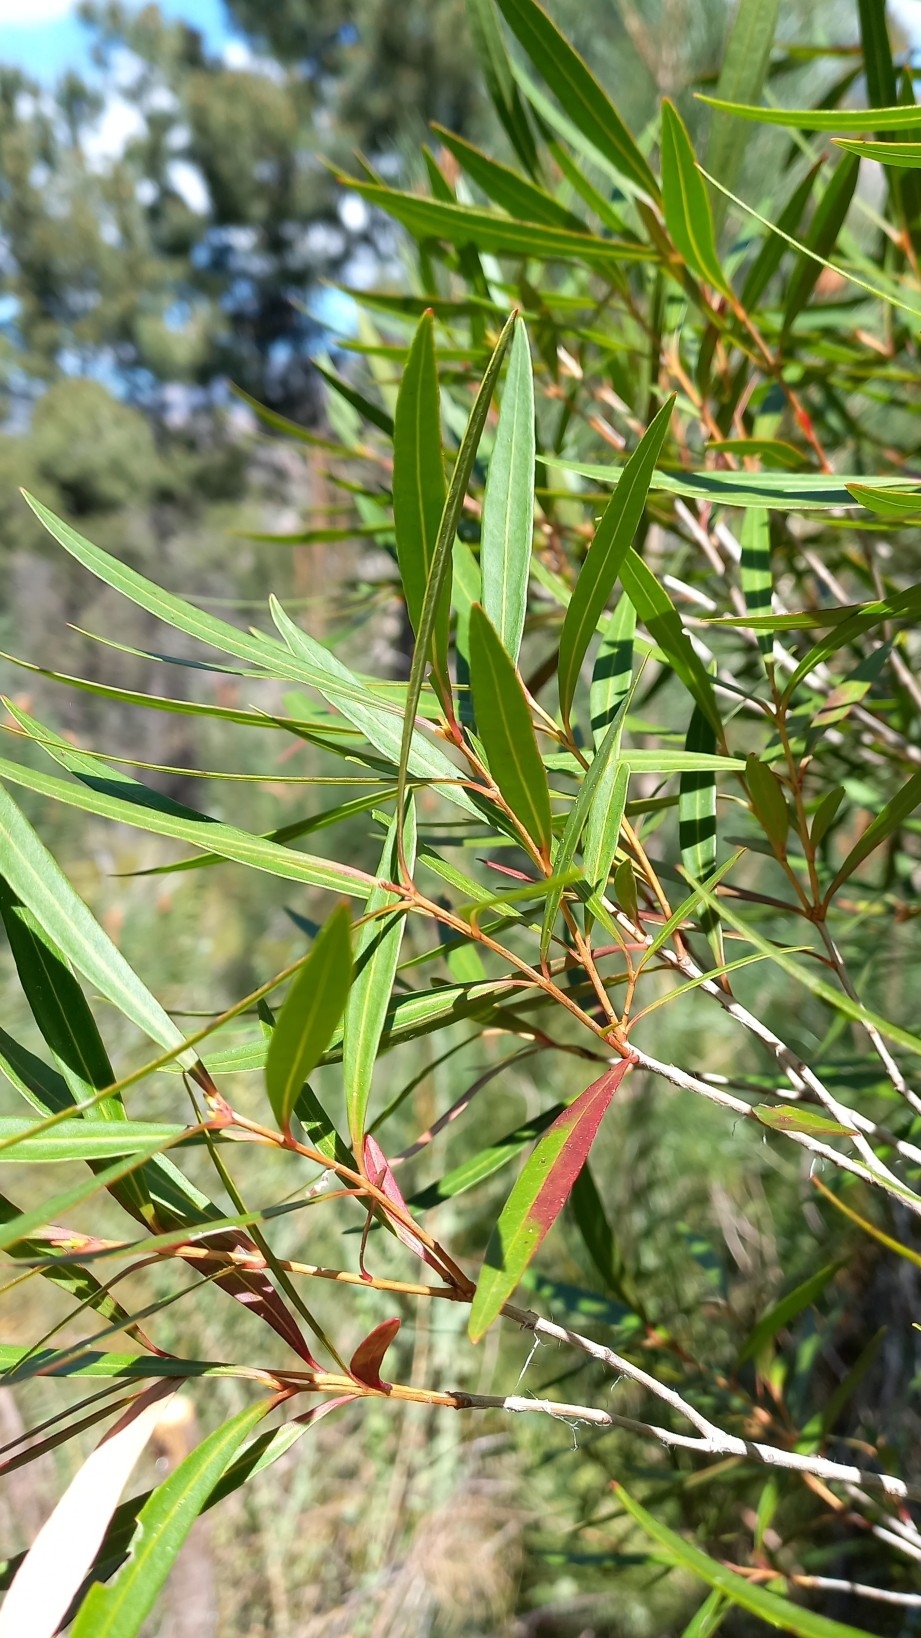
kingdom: Plantae
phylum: Tracheophyta
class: Magnoliopsida
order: Myrtales
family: Myrtaceae
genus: Callistemon
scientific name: Callistemon lanceolatus
